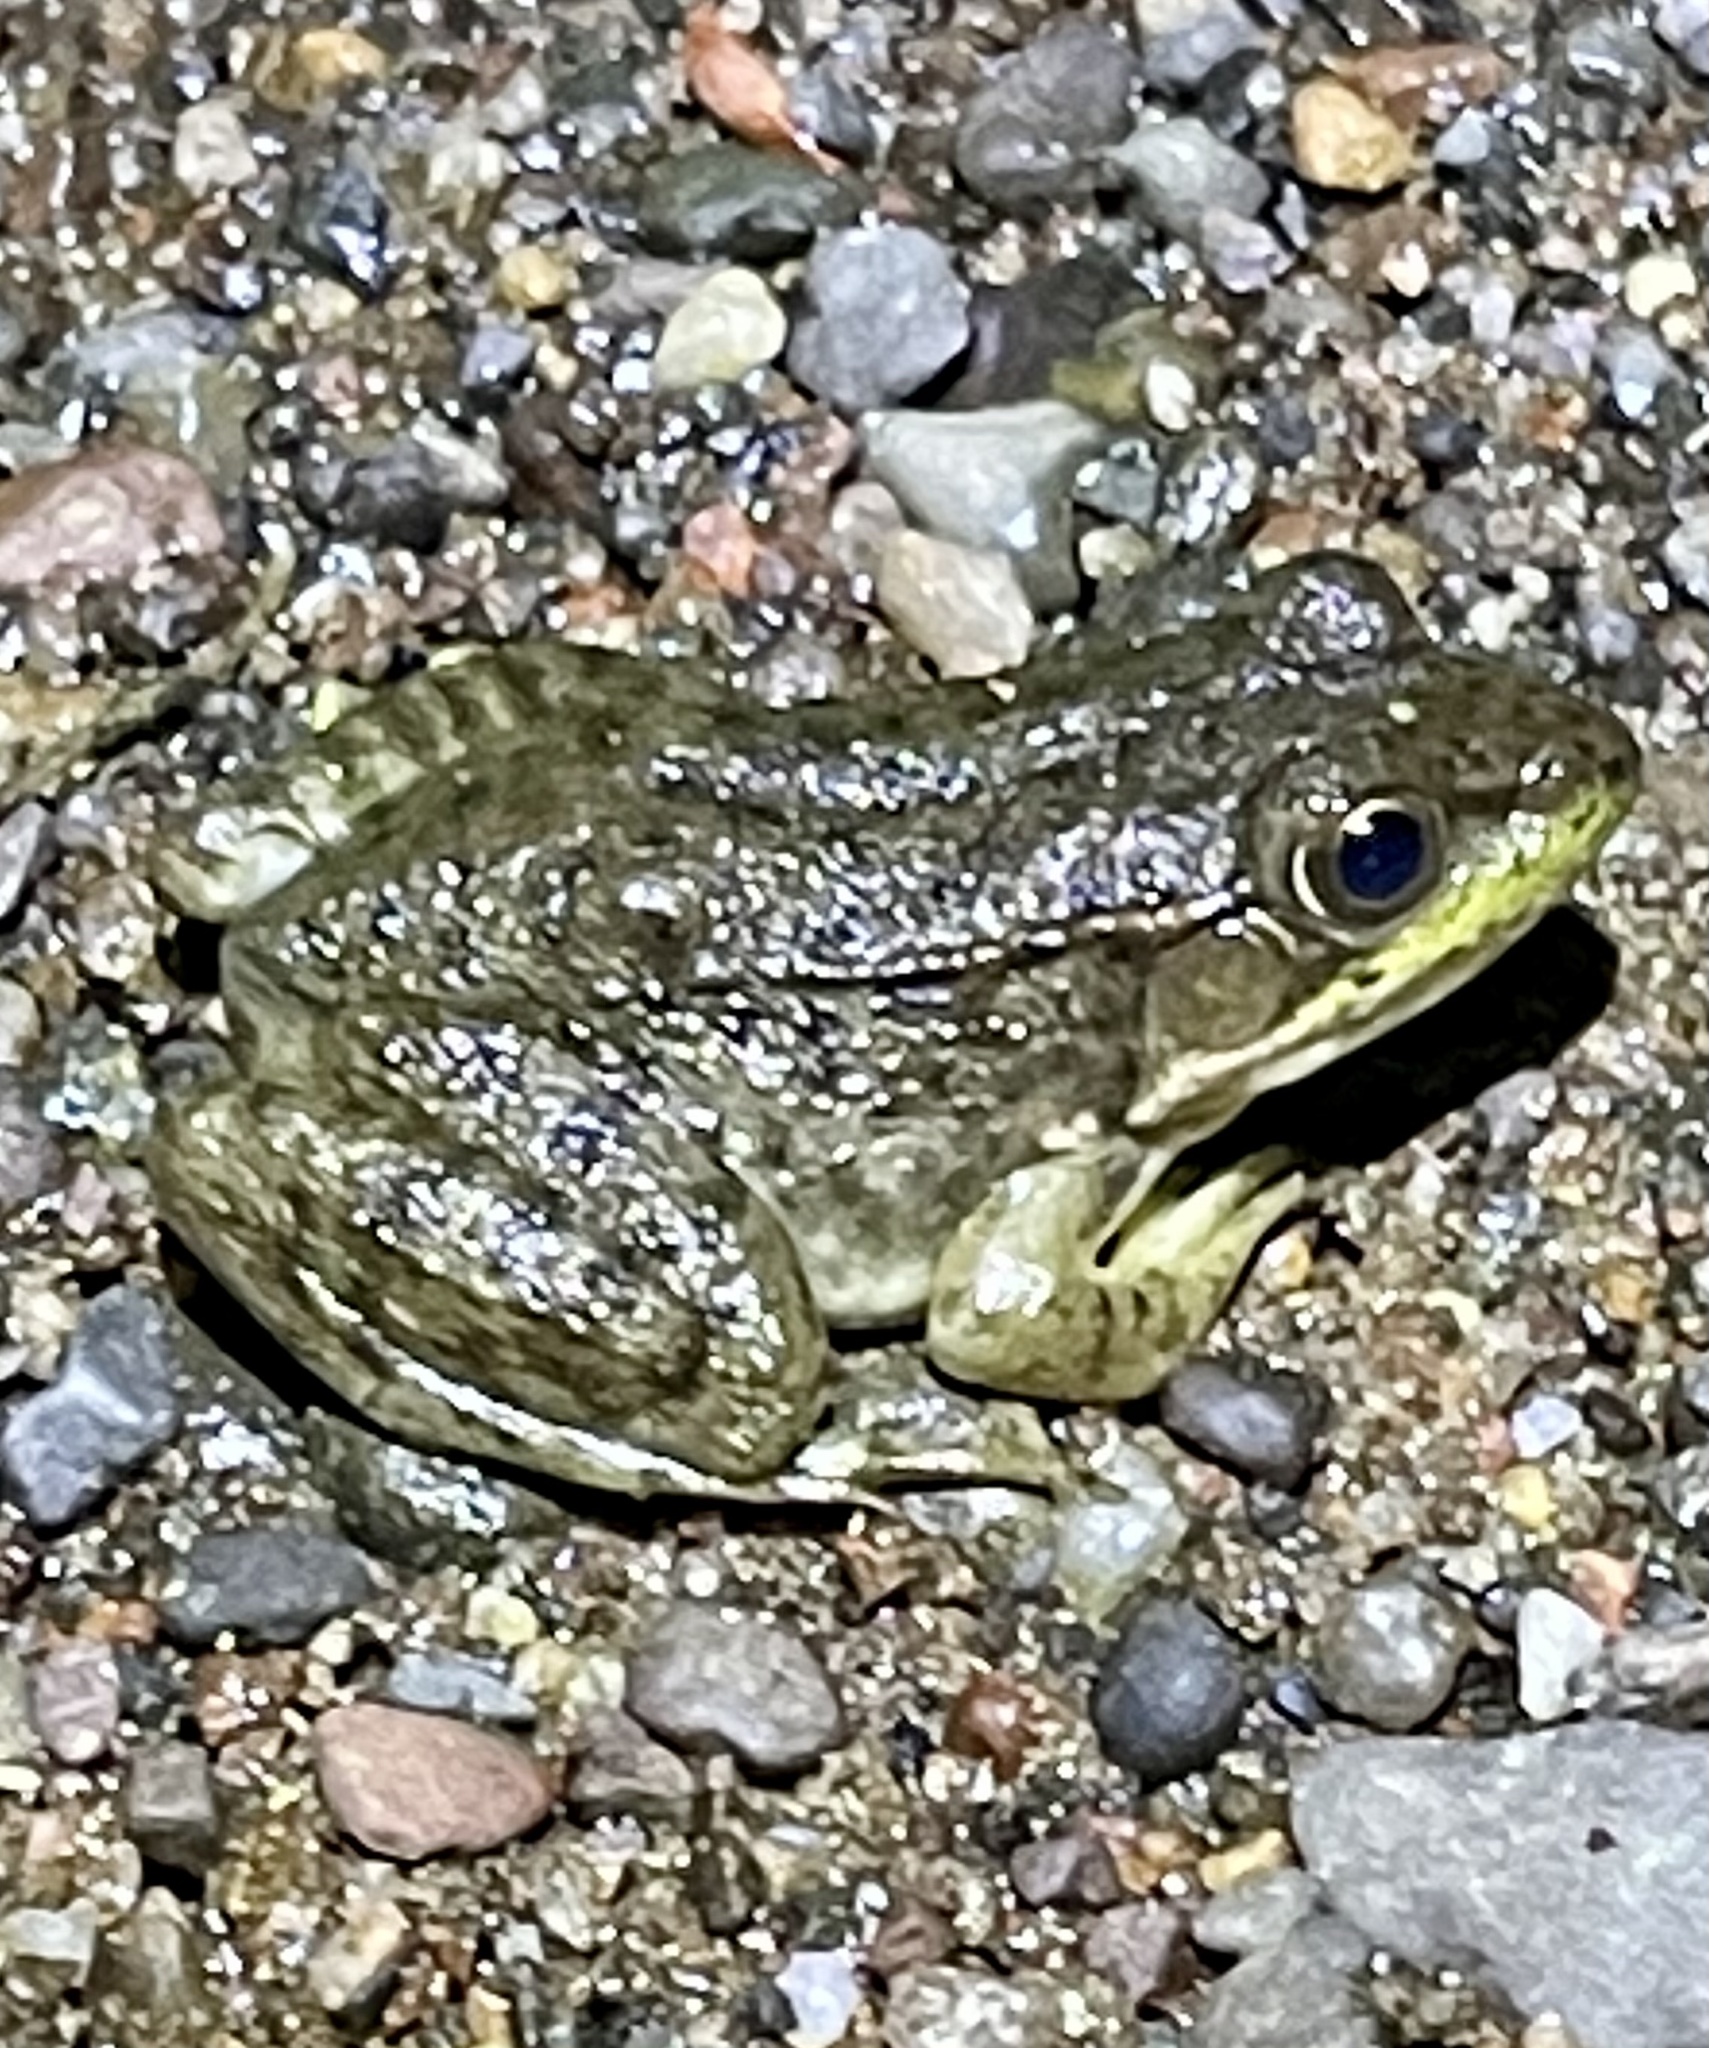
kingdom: Animalia
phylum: Chordata
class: Amphibia
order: Anura
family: Ranidae
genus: Lithobates
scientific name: Lithobates clamitans
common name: Green frog
